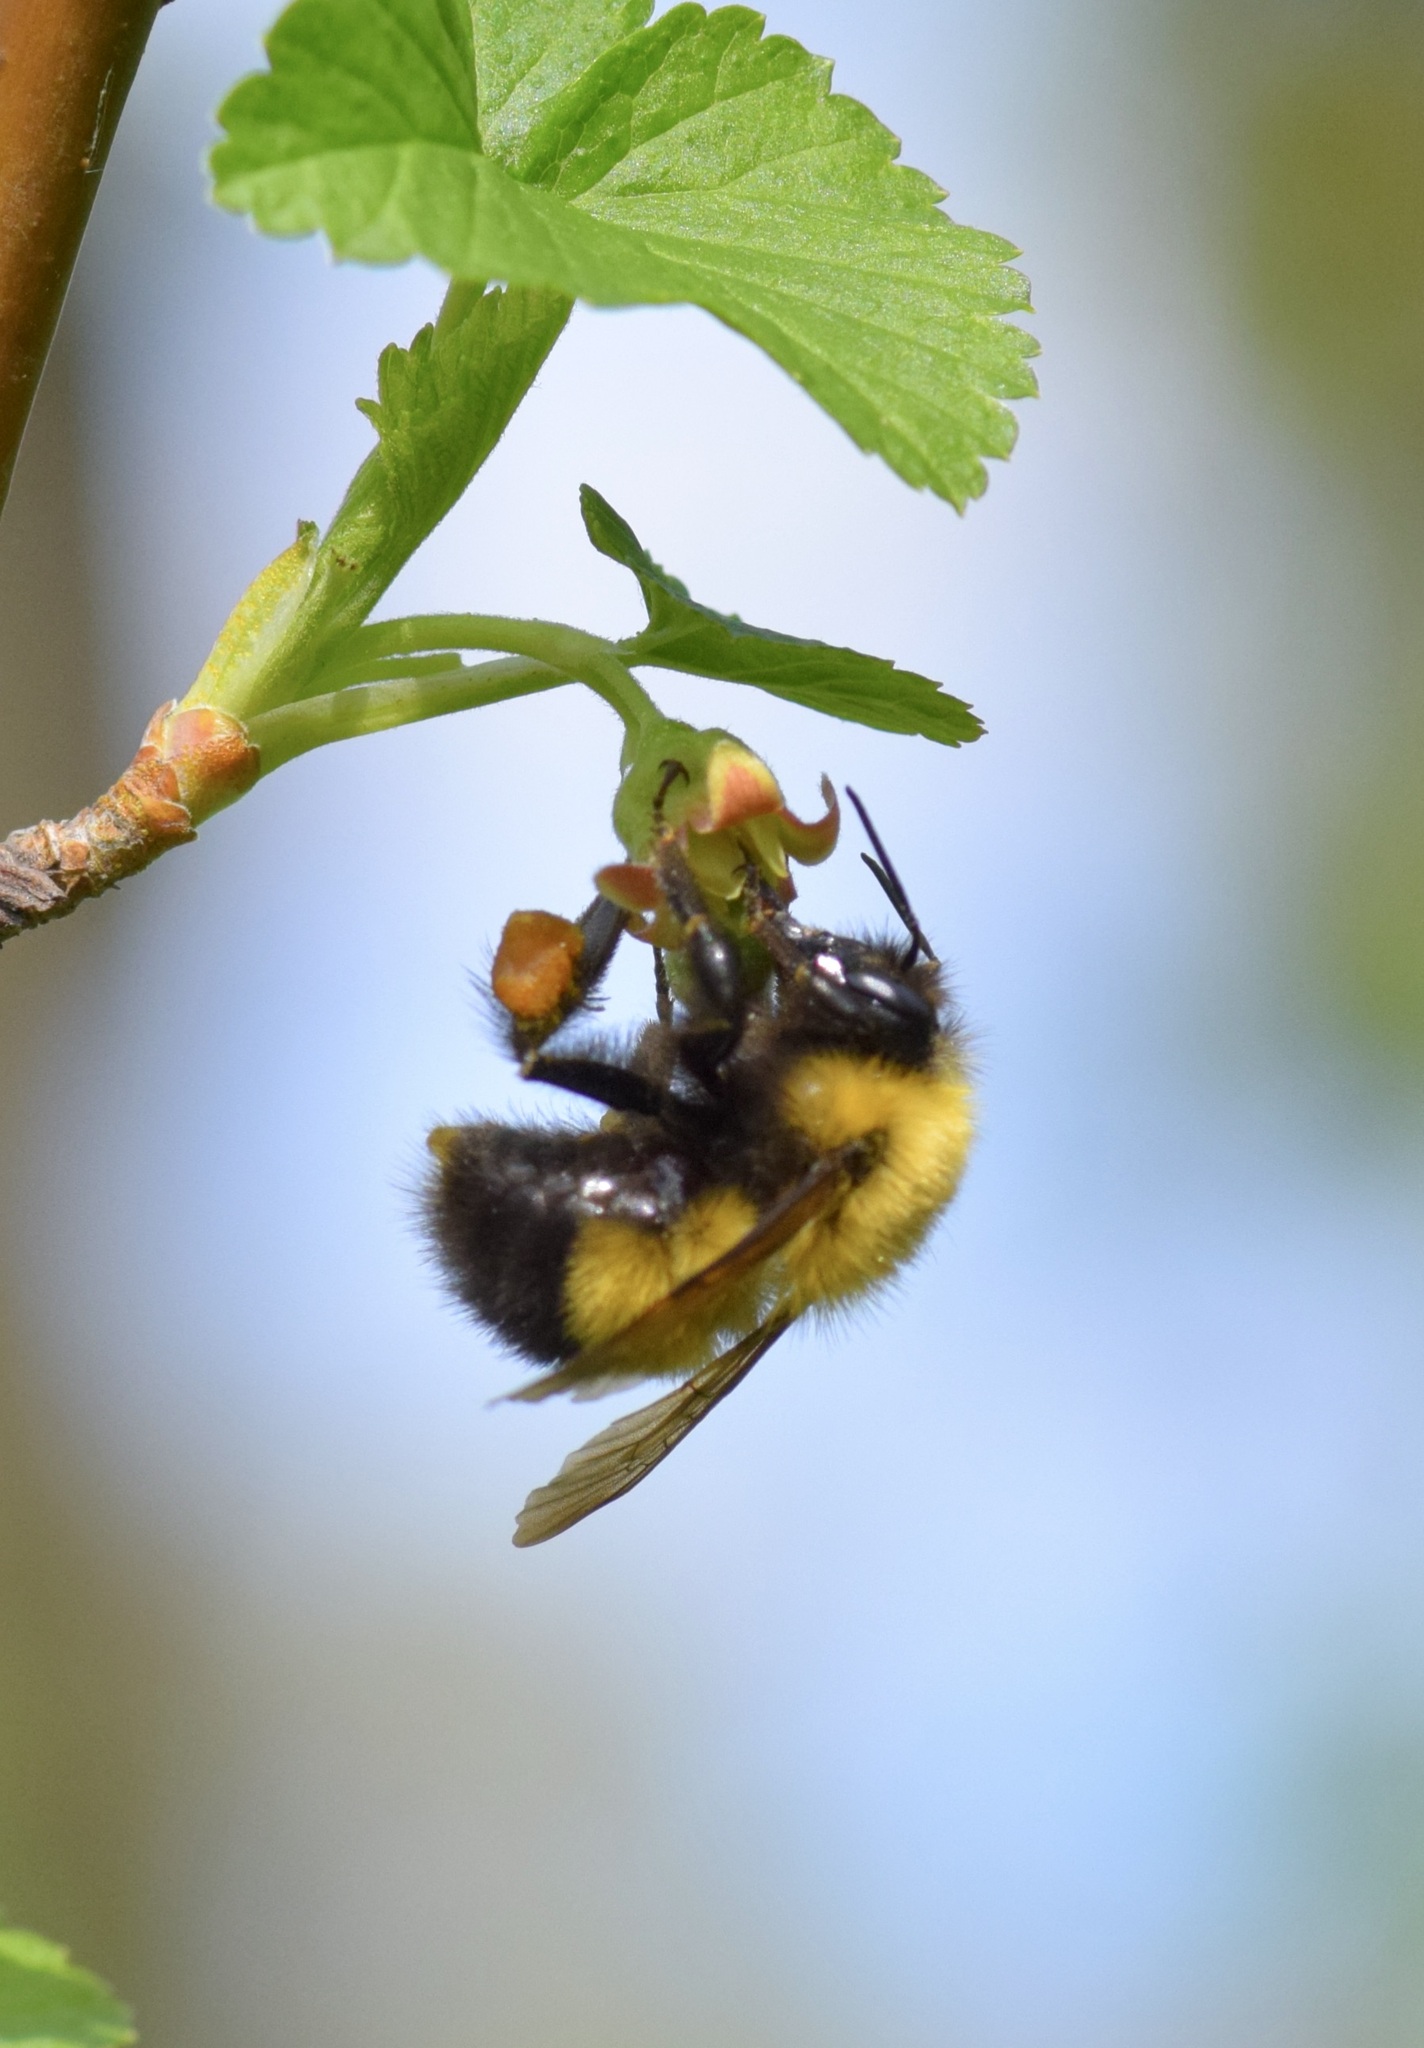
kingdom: Animalia
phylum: Arthropoda
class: Insecta
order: Hymenoptera
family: Apidae
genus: Bombus
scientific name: Bombus perplexus
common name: Confusing bumble bee
